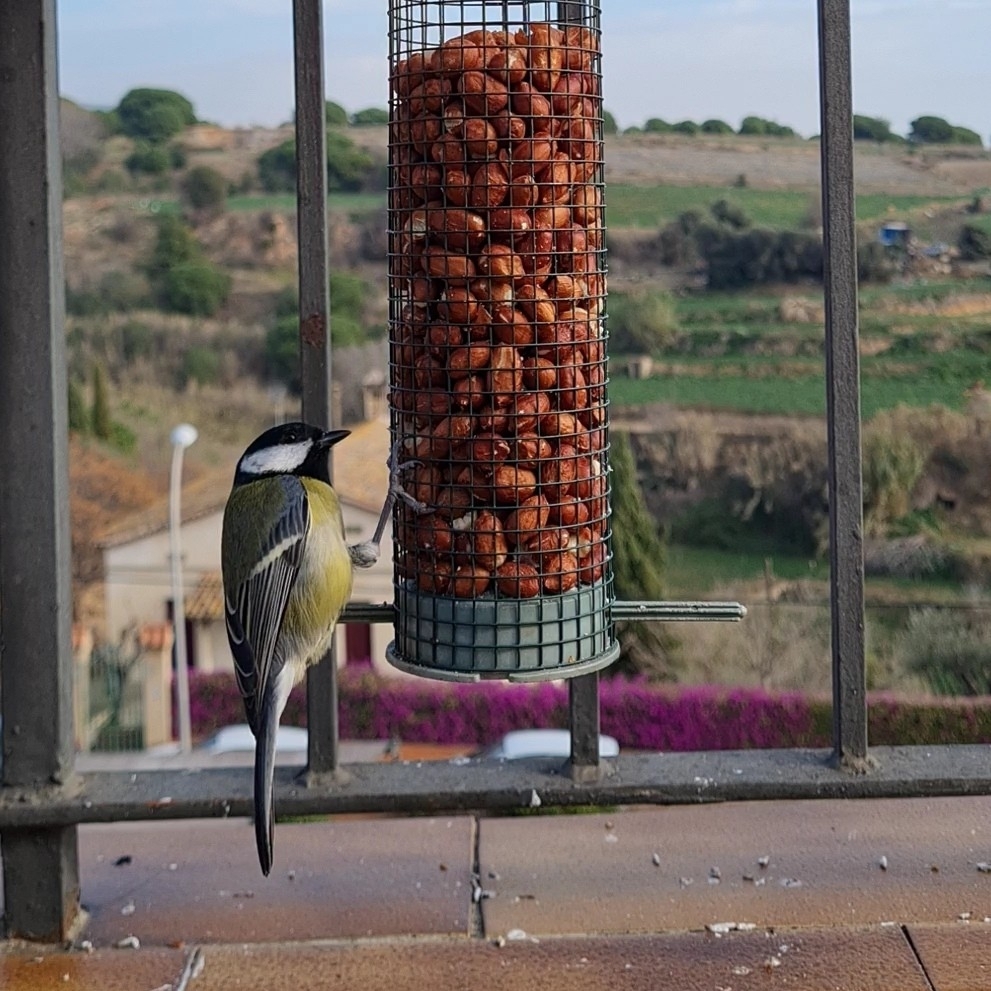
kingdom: Animalia
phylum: Chordata
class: Aves
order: Passeriformes
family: Paridae
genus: Parus
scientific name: Parus major
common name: Great tit
